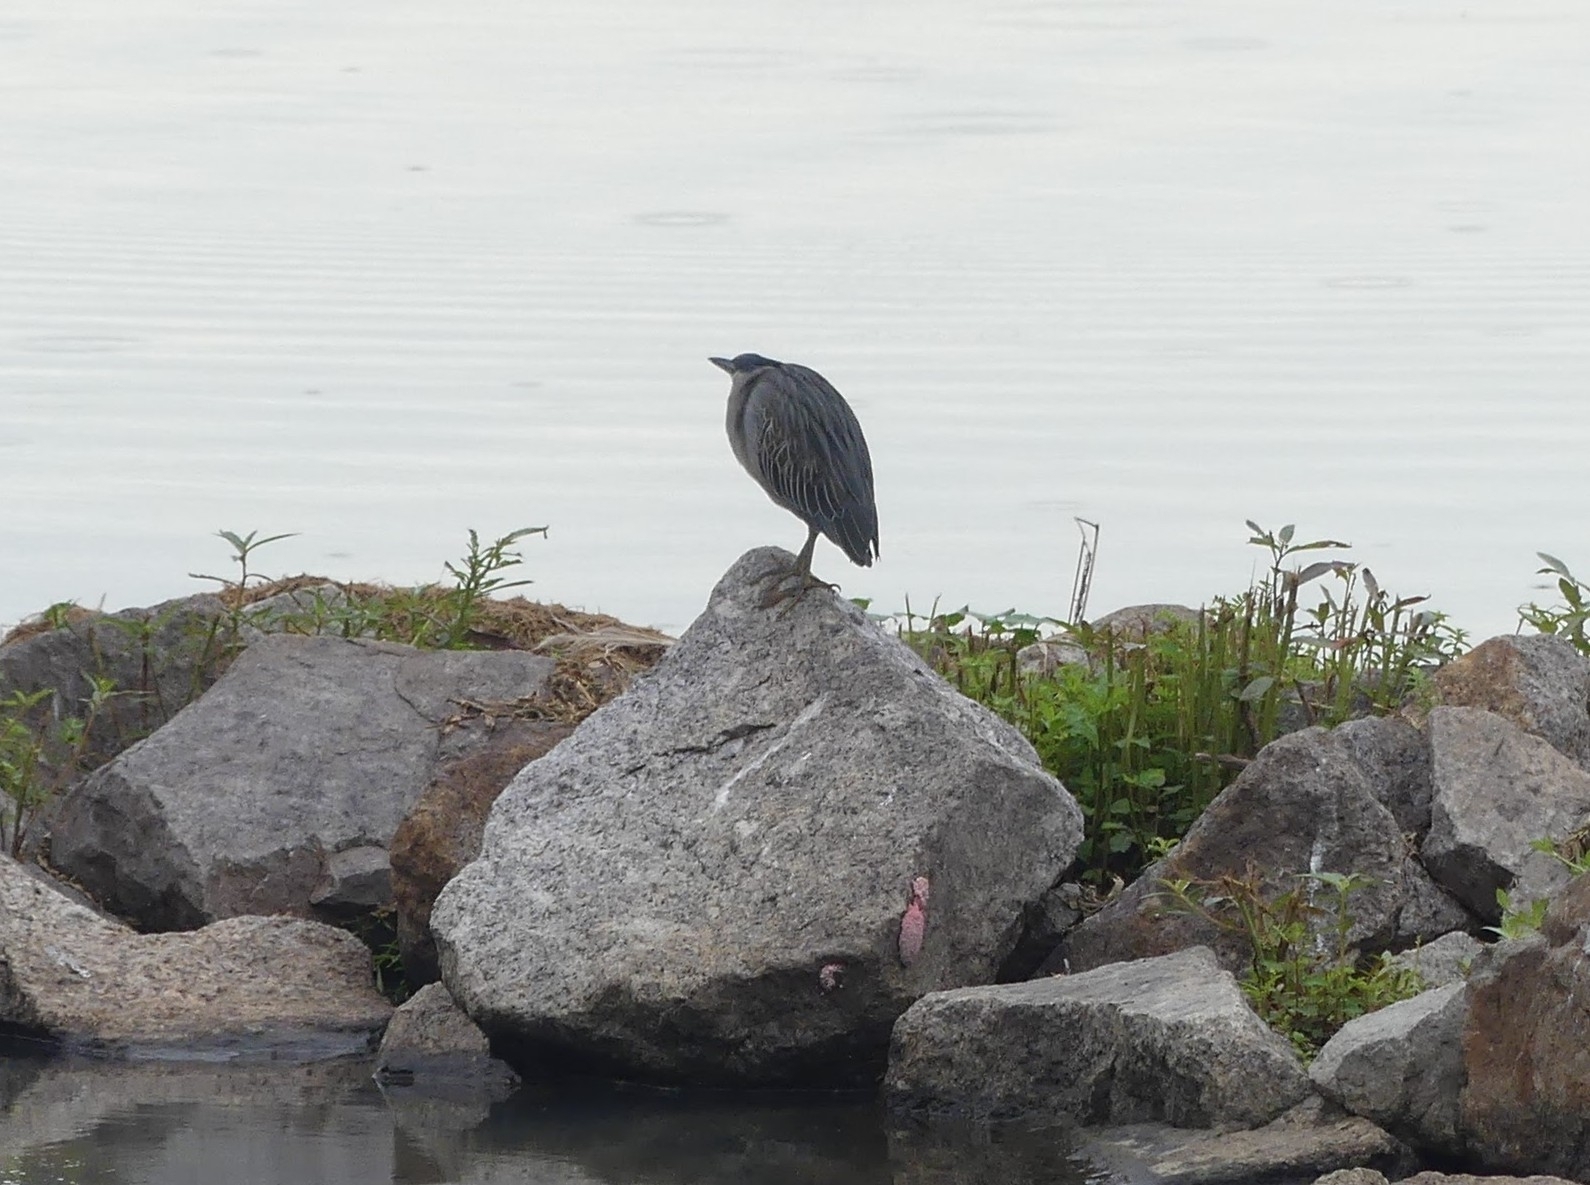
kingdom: Animalia
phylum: Chordata
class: Aves
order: Pelecaniformes
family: Ardeidae
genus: Butorides
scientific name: Butorides striata
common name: Striated heron
